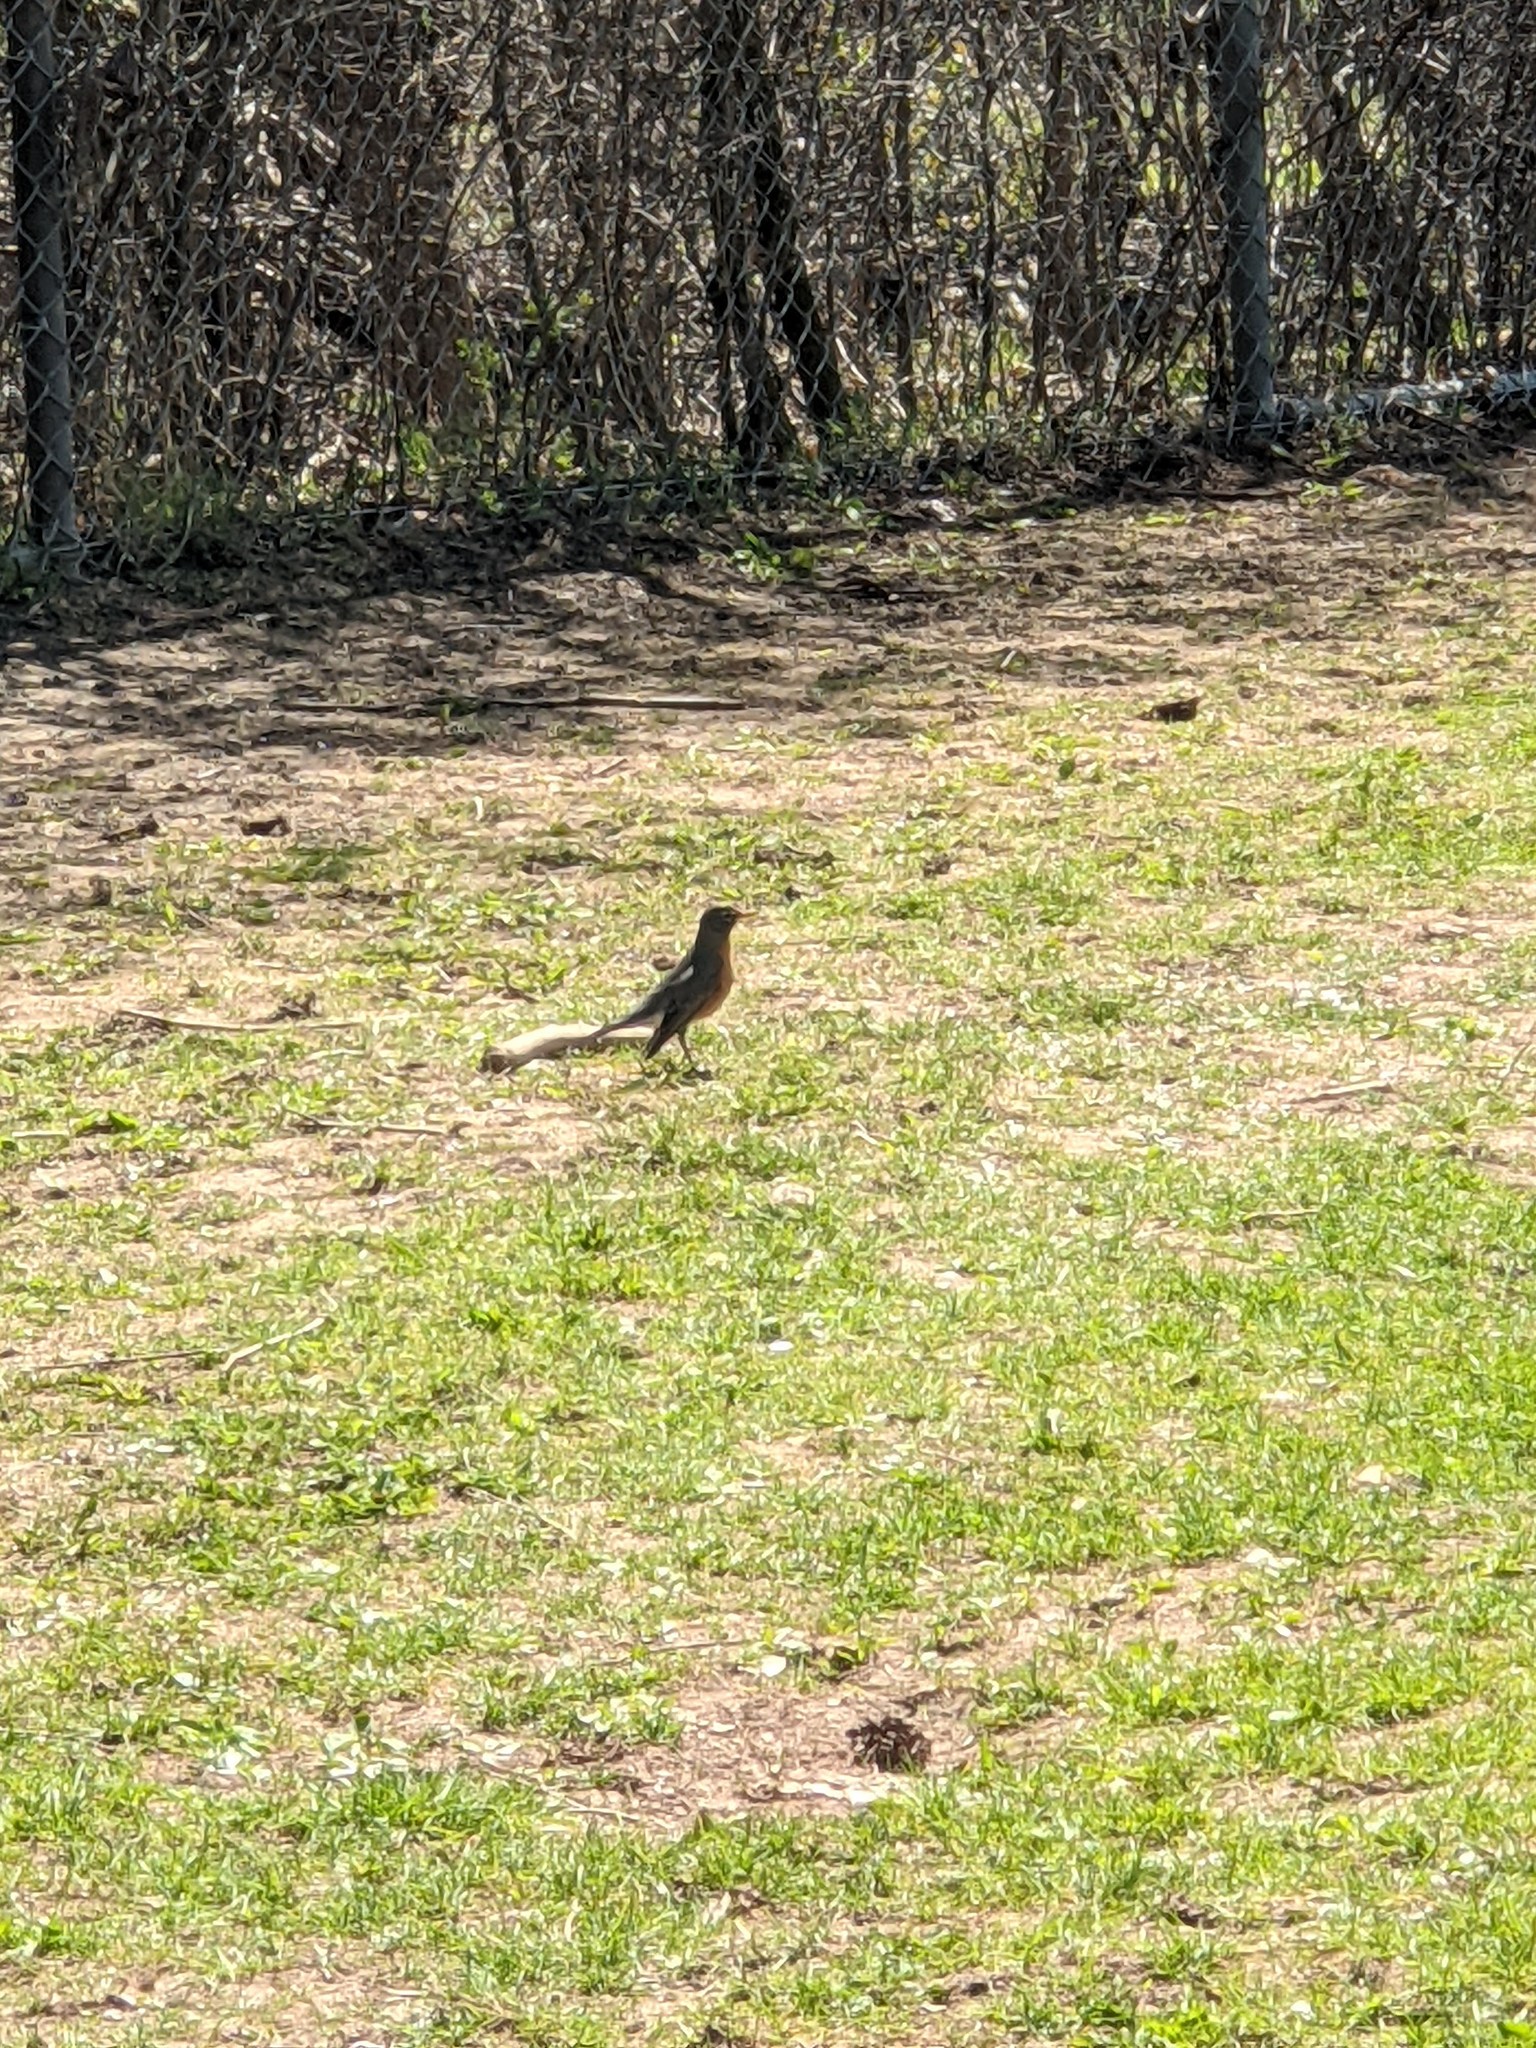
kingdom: Animalia
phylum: Chordata
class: Aves
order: Passeriformes
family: Turdidae
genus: Turdus
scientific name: Turdus migratorius
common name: American robin
